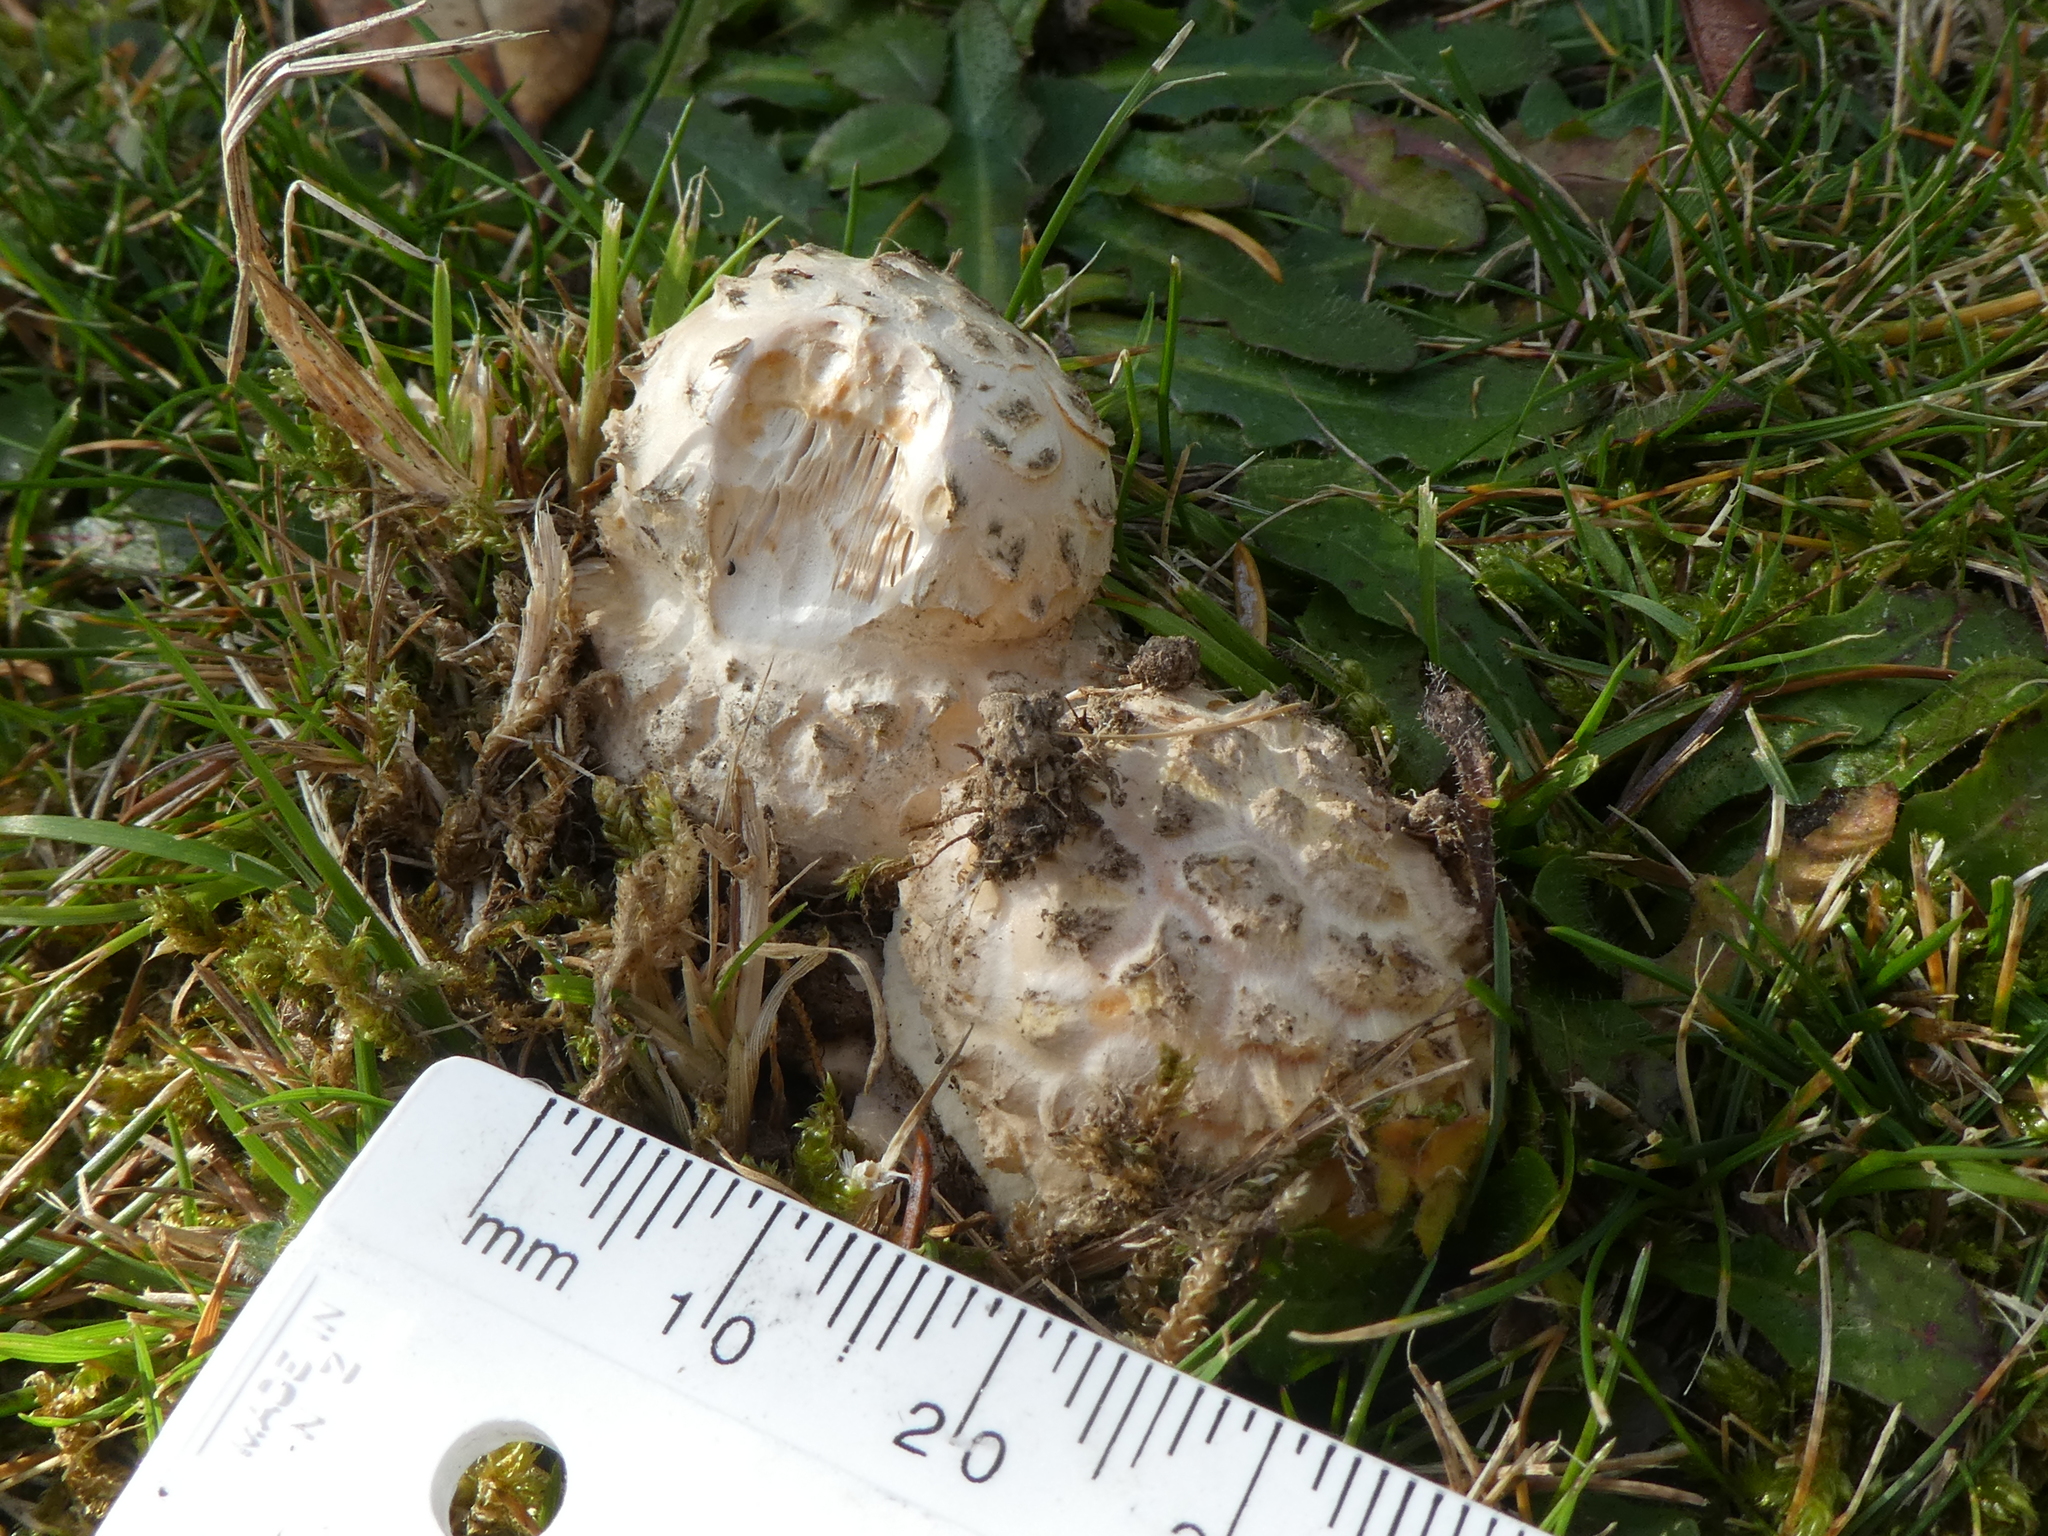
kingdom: Fungi
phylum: Basidiomycota
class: Agaricomycetes
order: Agaricales
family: Amanitaceae
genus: Amanita
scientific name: Amanita muscaria
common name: Fly agaric
